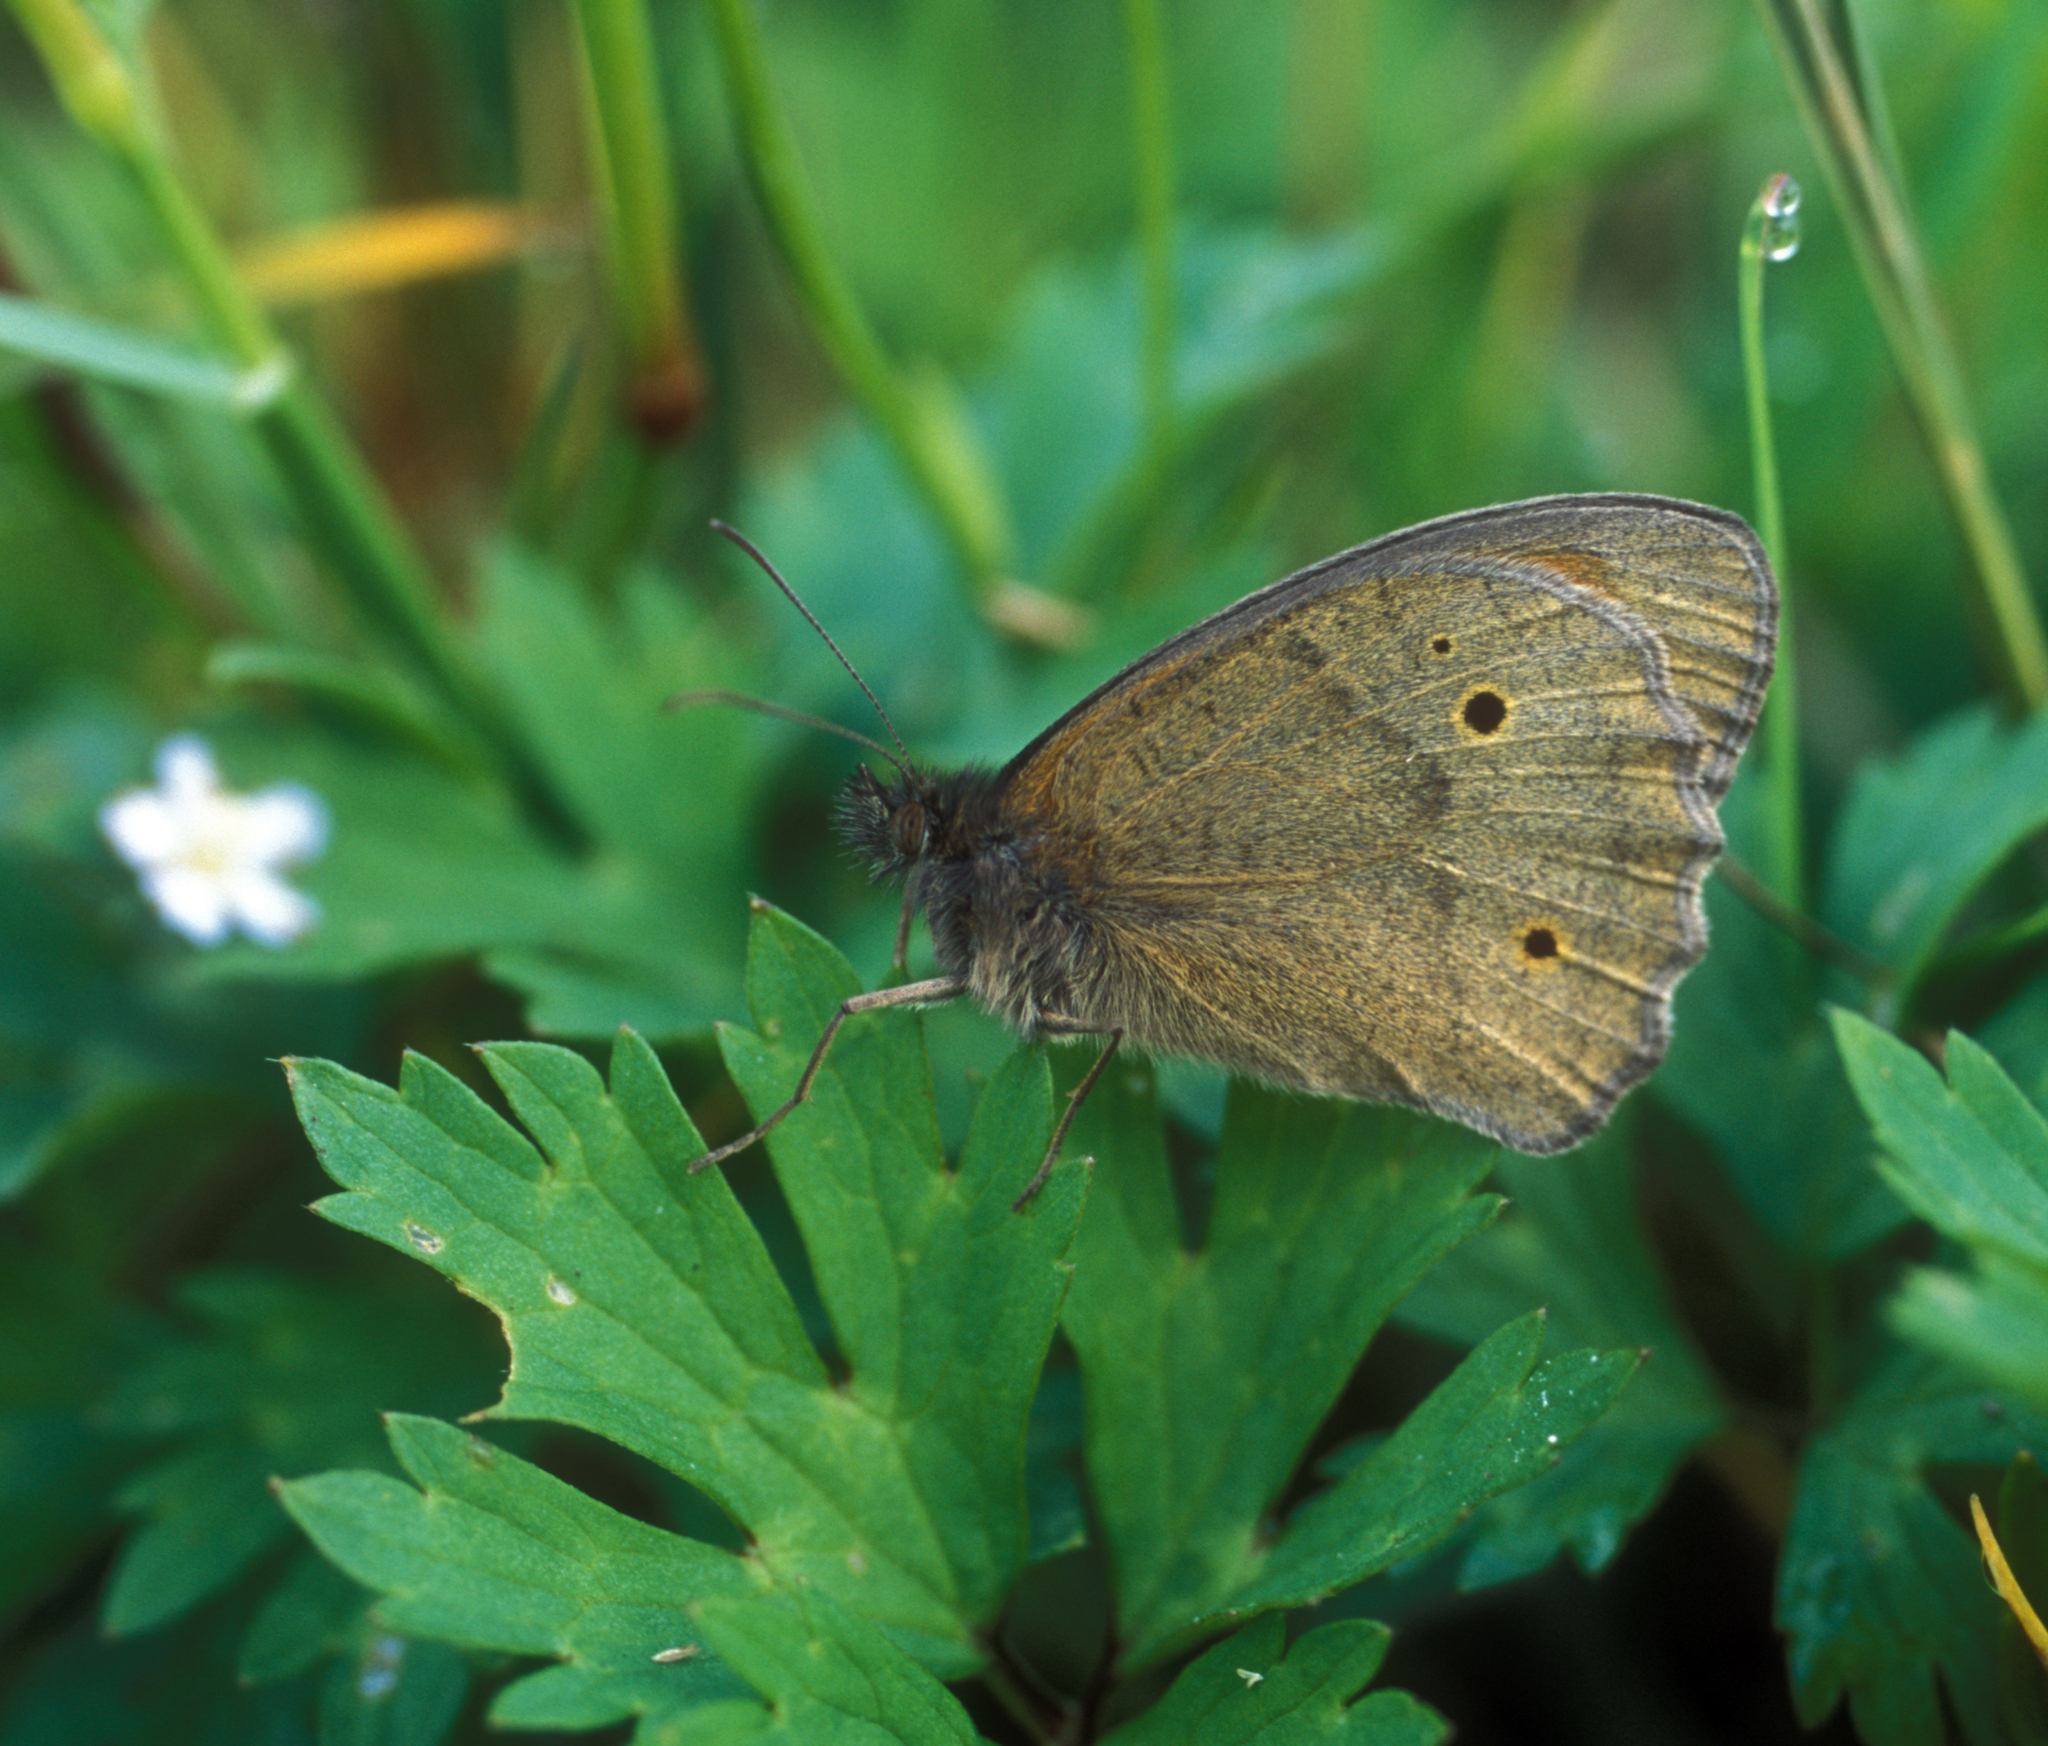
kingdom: Animalia
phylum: Arthropoda
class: Insecta
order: Lepidoptera
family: Nymphalidae
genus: Maniola
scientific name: Maniola jurtina
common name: Meadow brown
